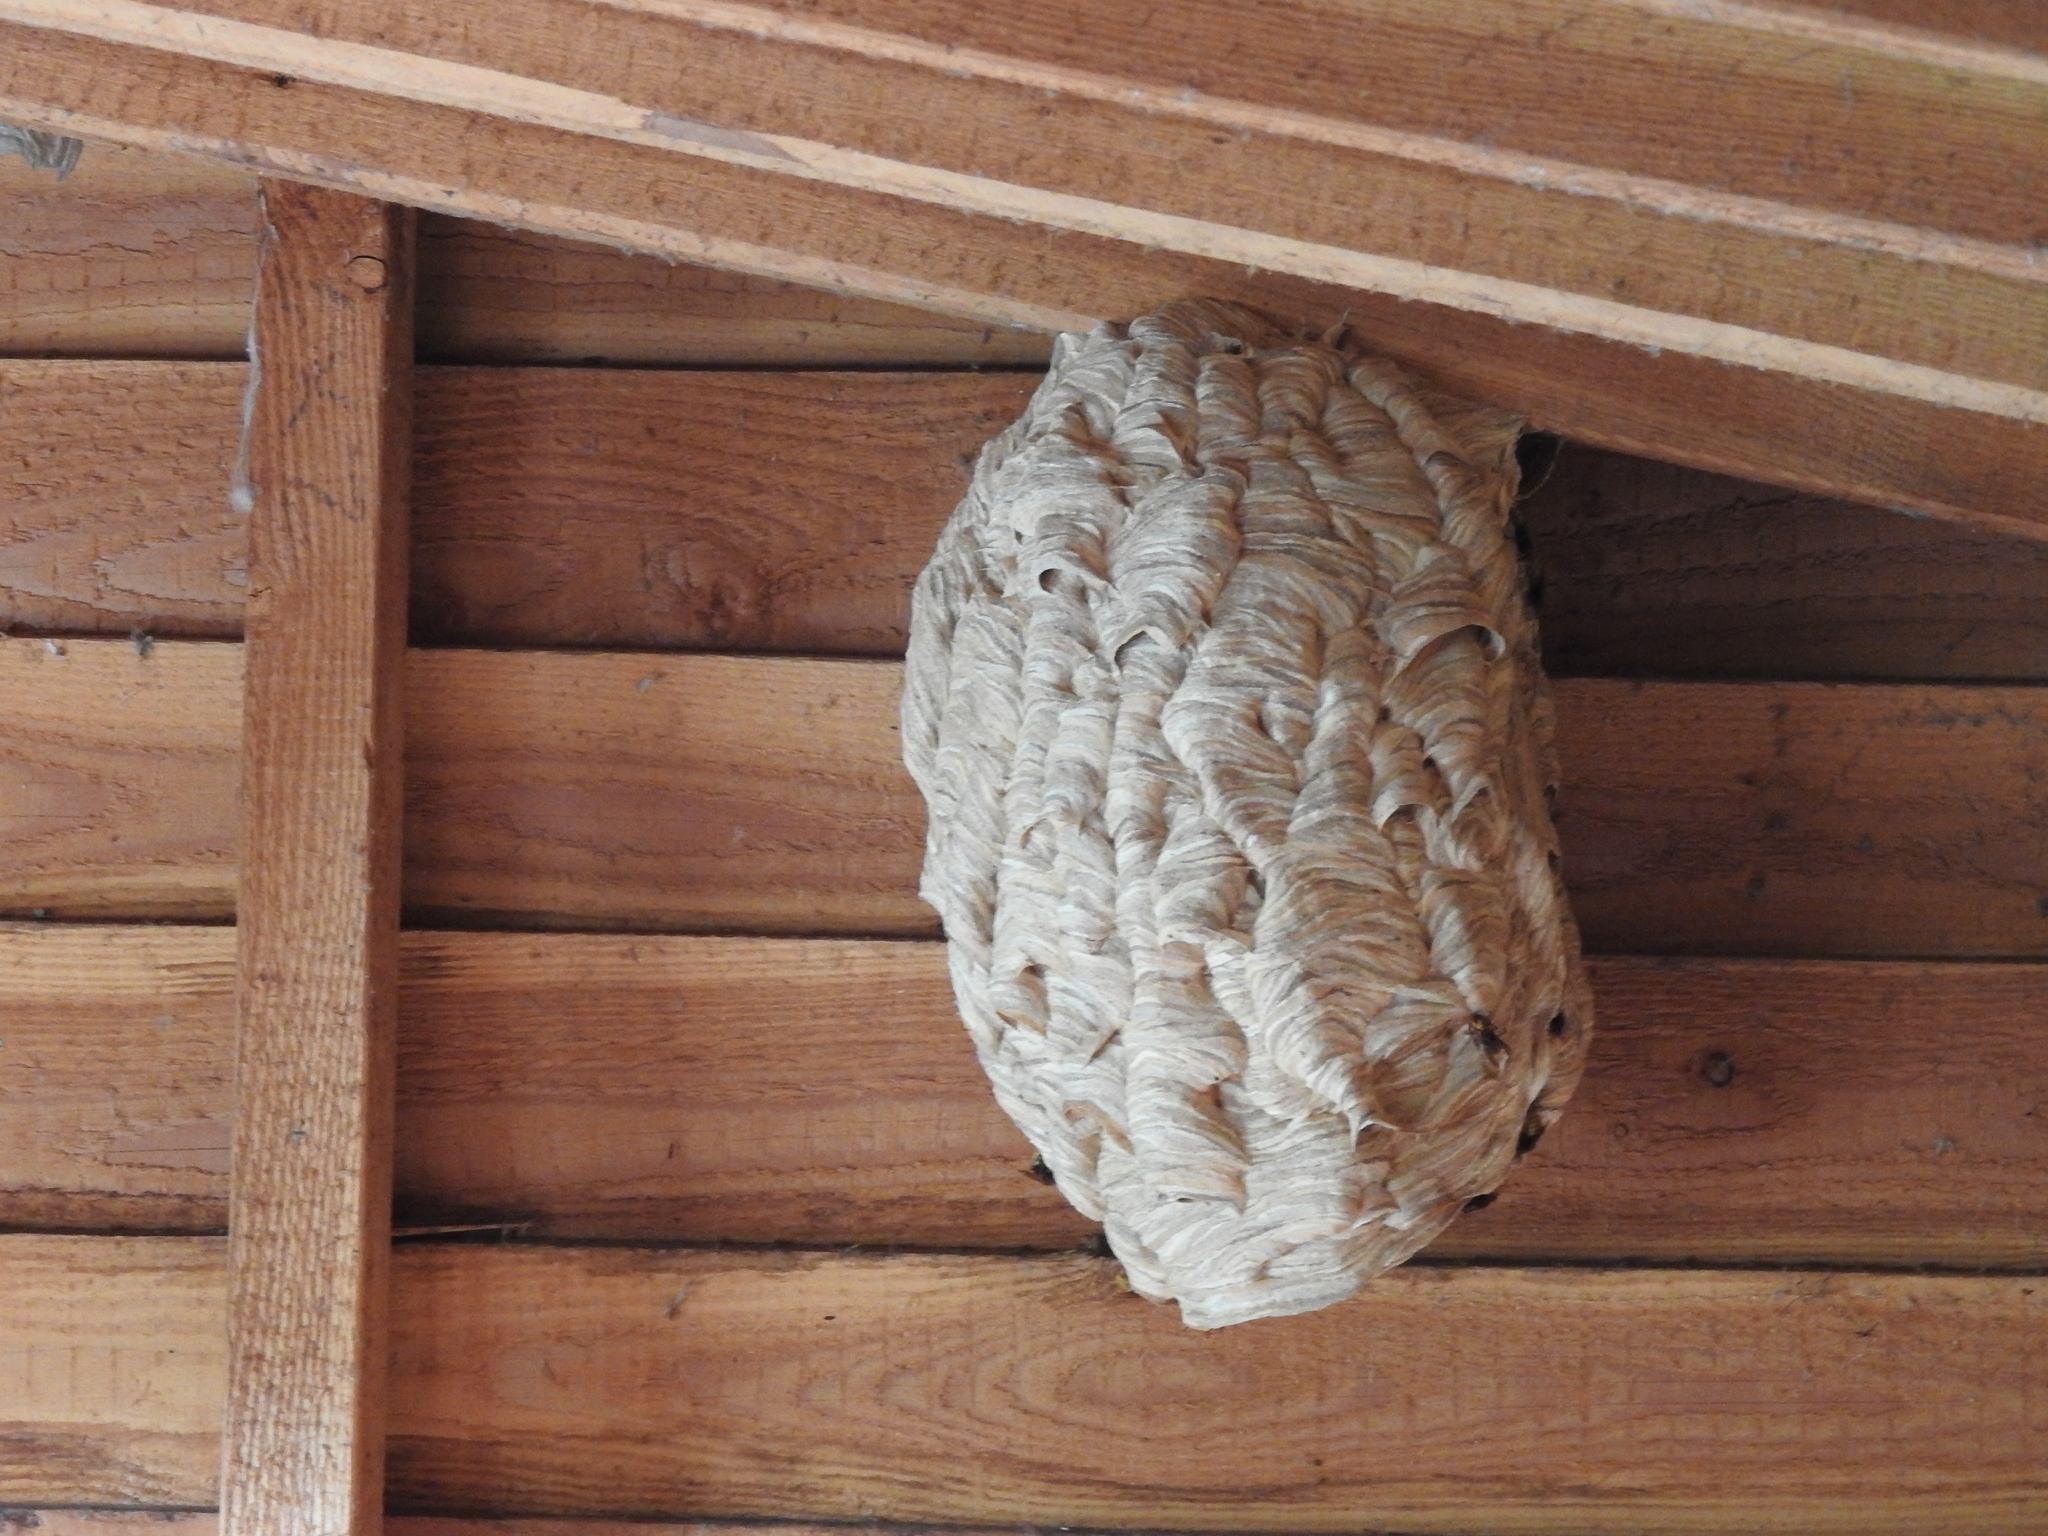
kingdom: Animalia
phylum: Arthropoda
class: Insecta
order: Hymenoptera
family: Vespidae
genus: Vespa
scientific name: Vespa crabro
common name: Hornet
